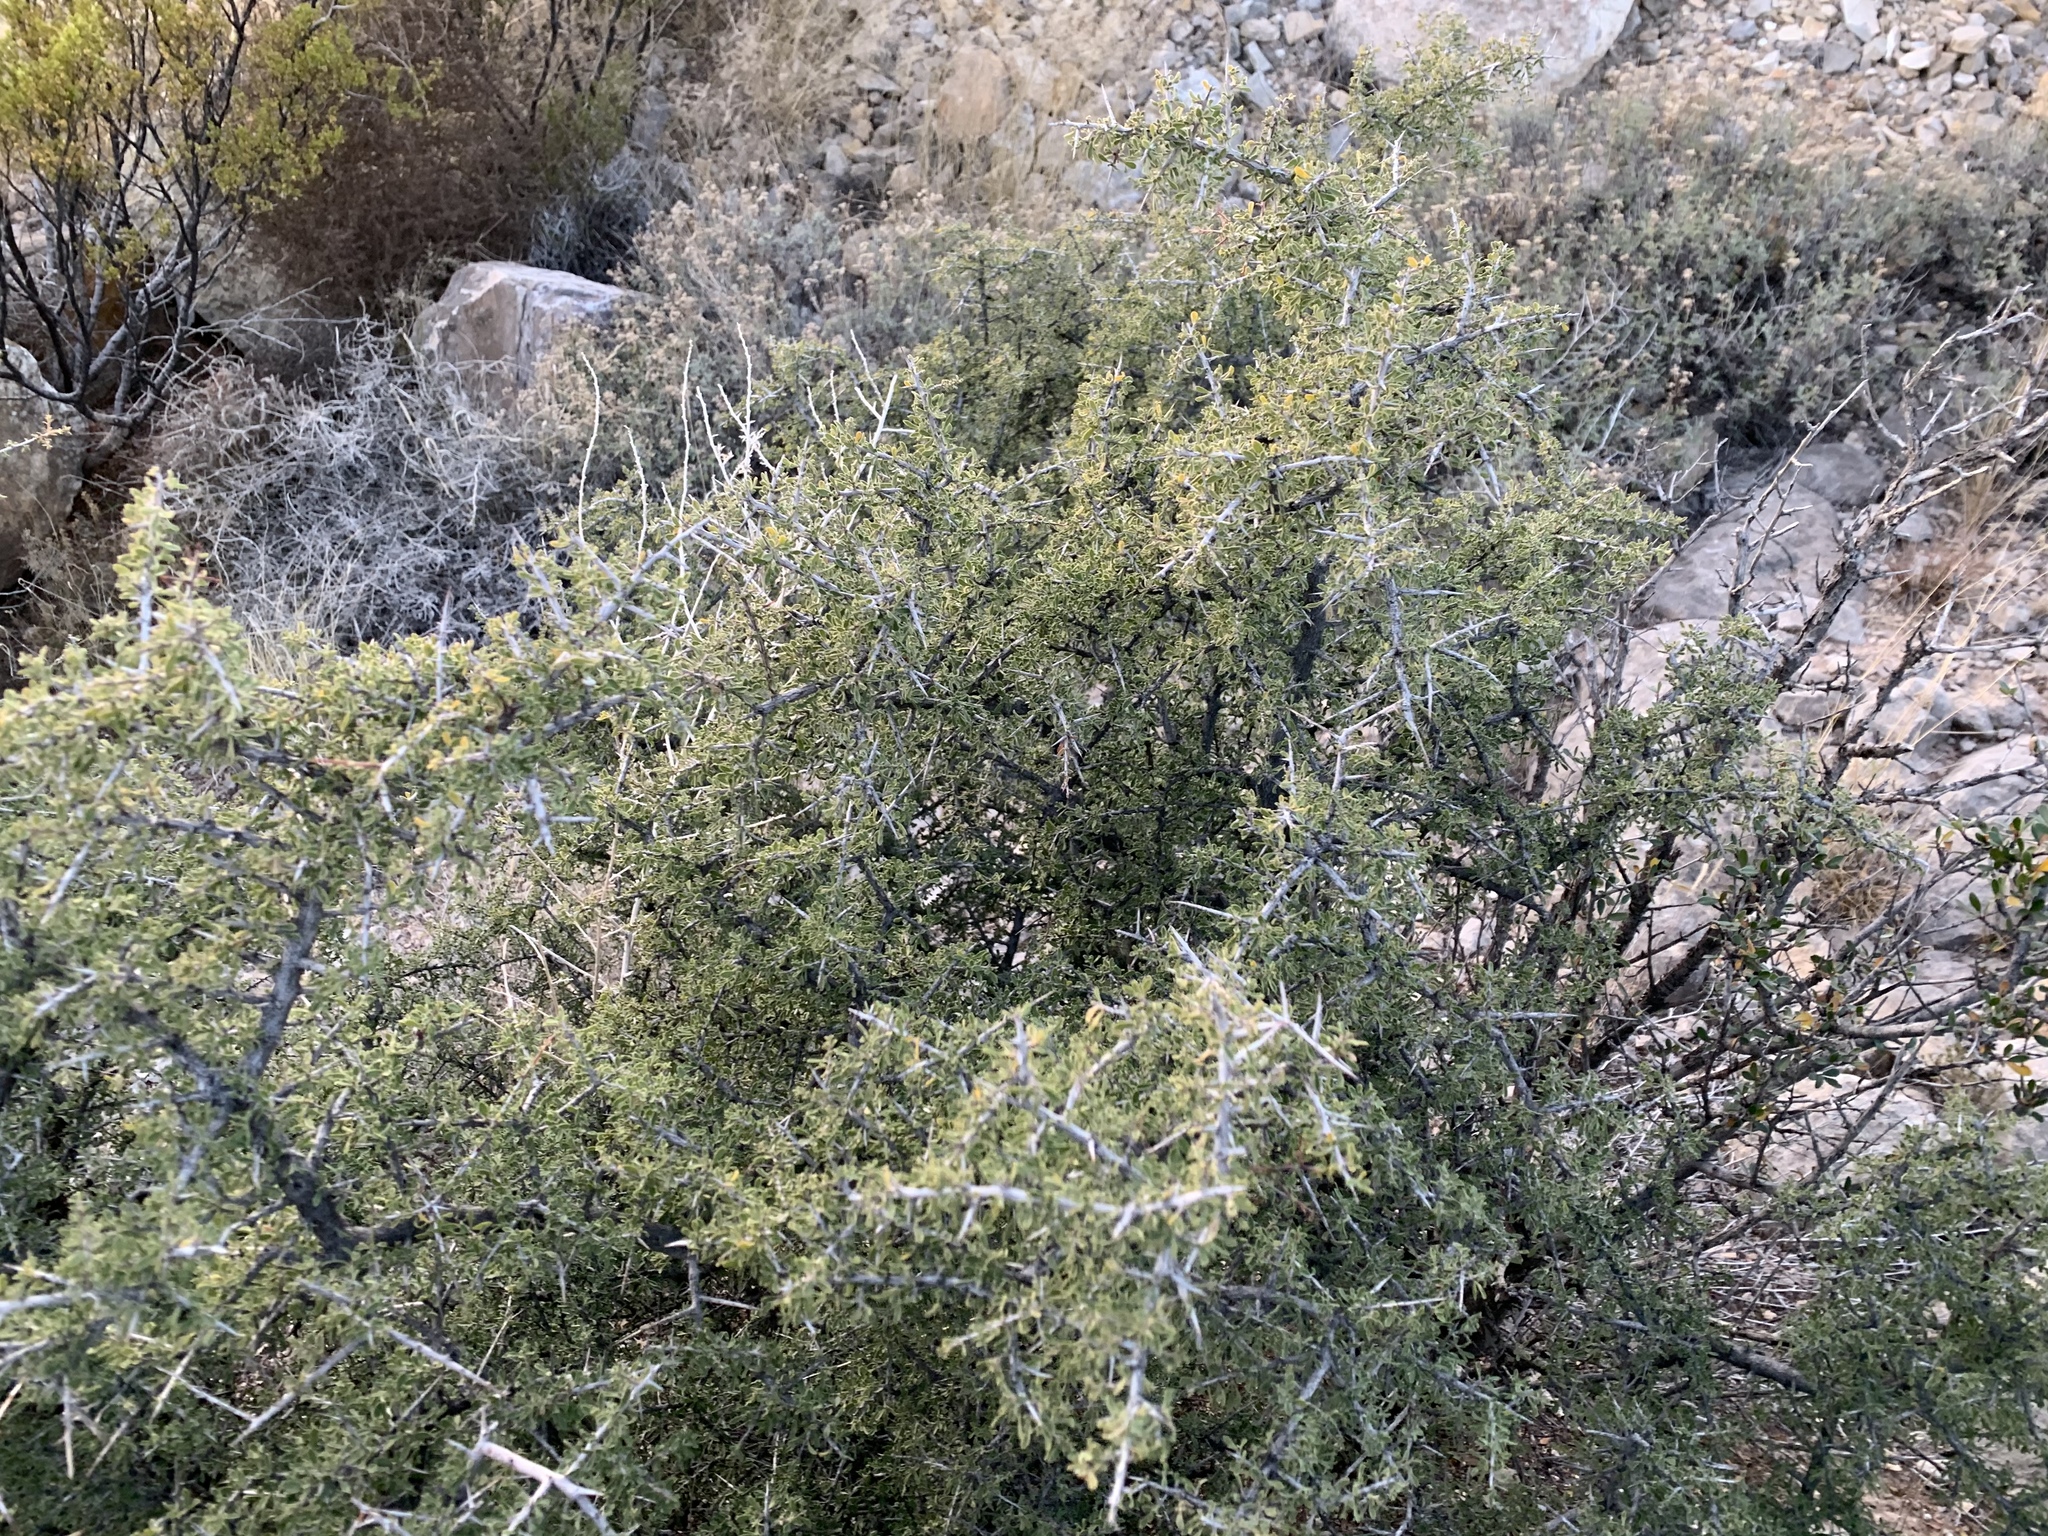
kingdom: Plantae
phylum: Tracheophyta
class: Magnoliopsida
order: Rosales
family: Rhamnaceae
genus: Condalia
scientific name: Condalia warnockii
